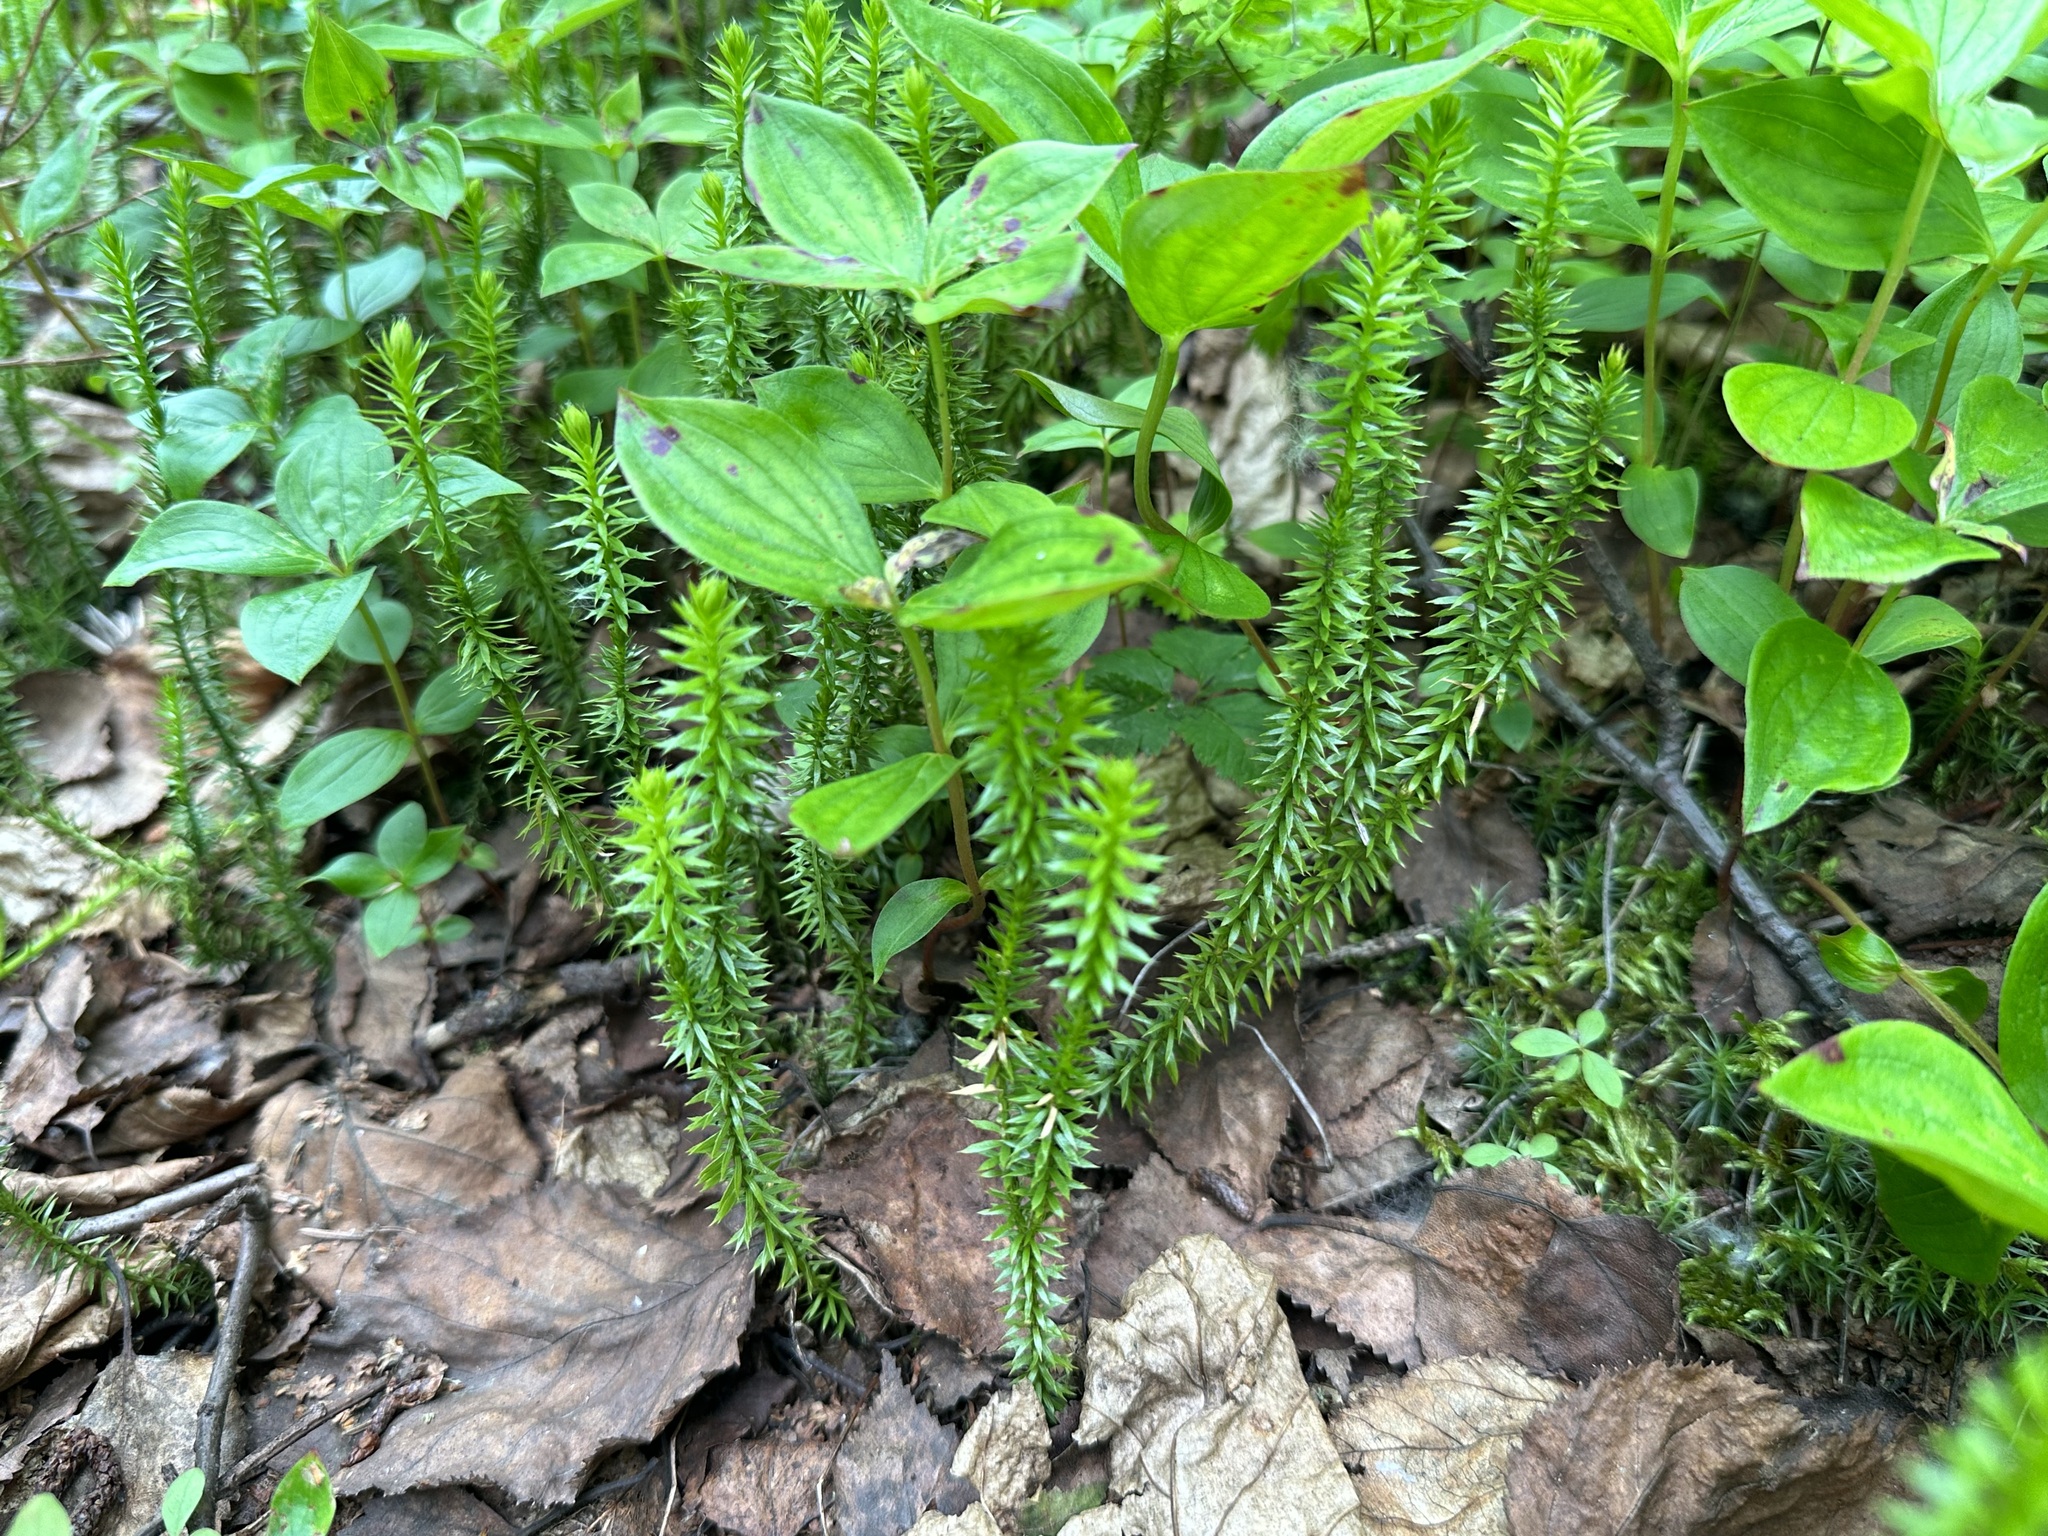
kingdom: Plantae
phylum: Tracheophyta
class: Lycopodiopsida
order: Lycopodiales
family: Lycopodiaceae
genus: Spinulum
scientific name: Spinulum annotinum
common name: Interrupted club-moss
